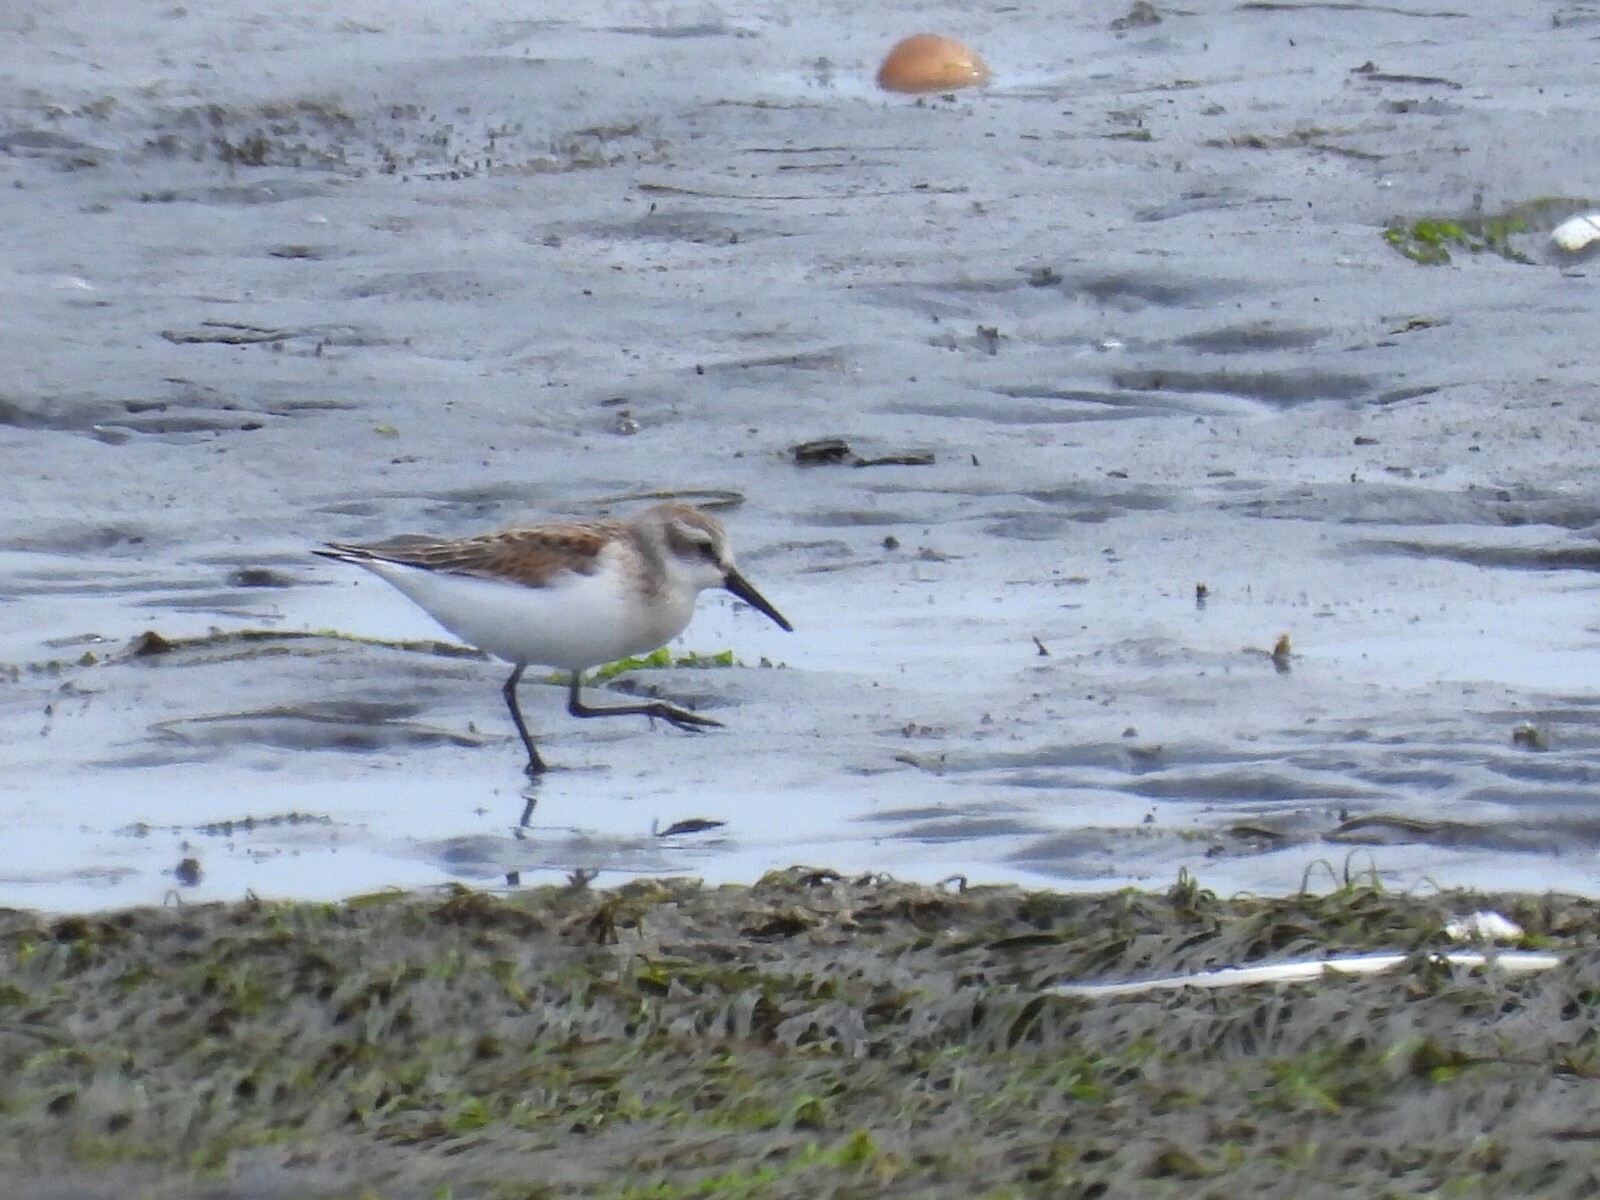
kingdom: Animalia
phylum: Chordata
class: Aves
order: Charadriiformes
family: Scolopacidae
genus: Calidris
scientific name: Calidris mauri
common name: Western sandpiper
